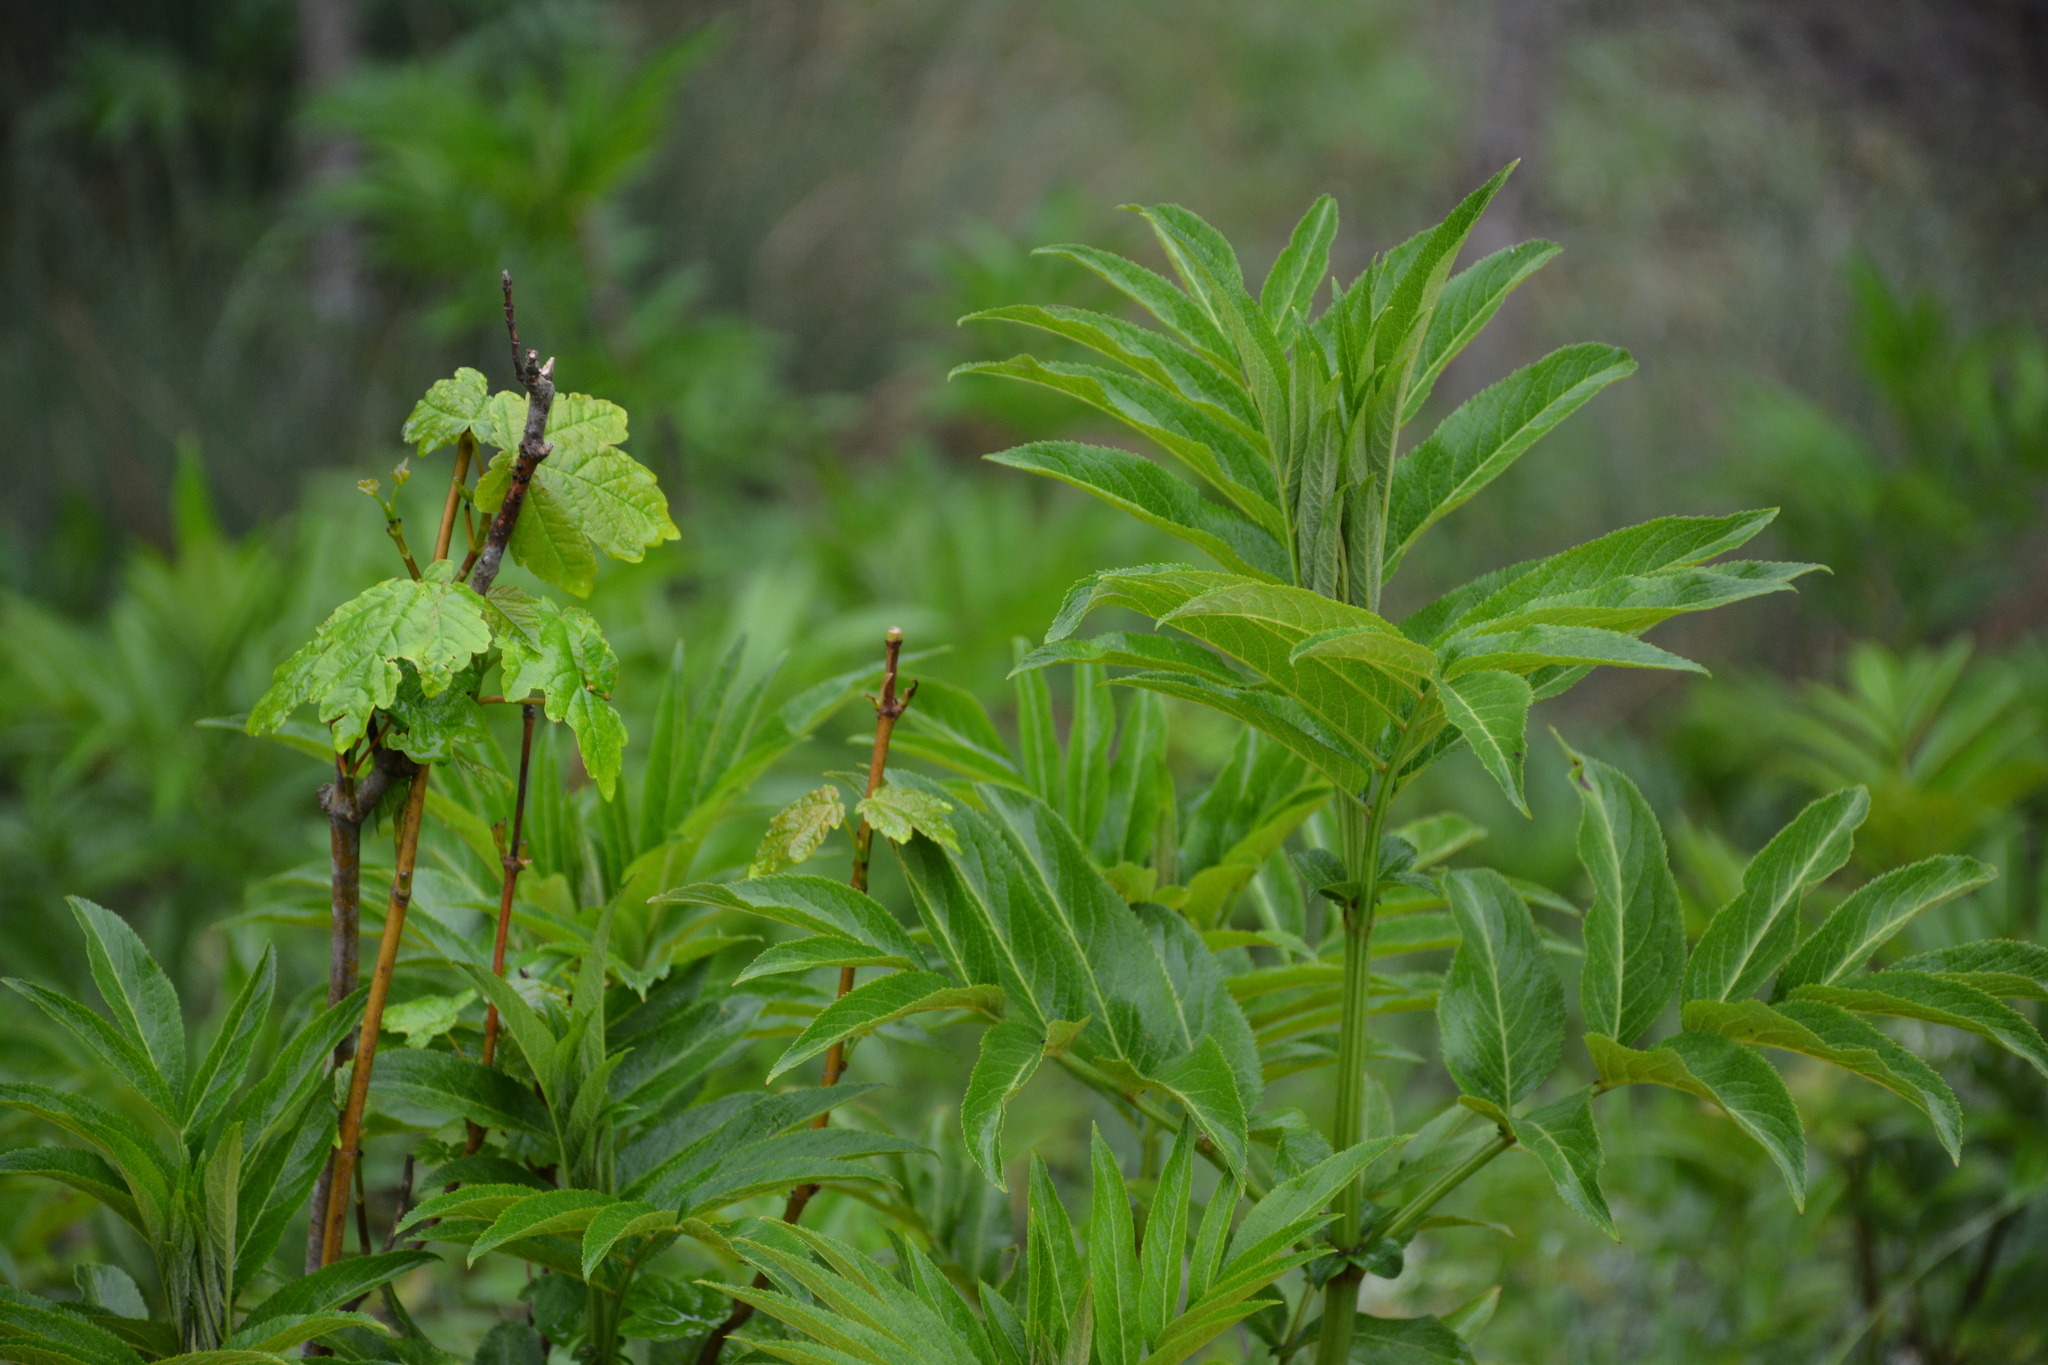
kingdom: Plantae
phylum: Tracheophyta
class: Magnoliopsida
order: Dipsacales
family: Viburnaceae
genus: Sambucus
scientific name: Sambucus ebulus
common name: Dwarf elder
